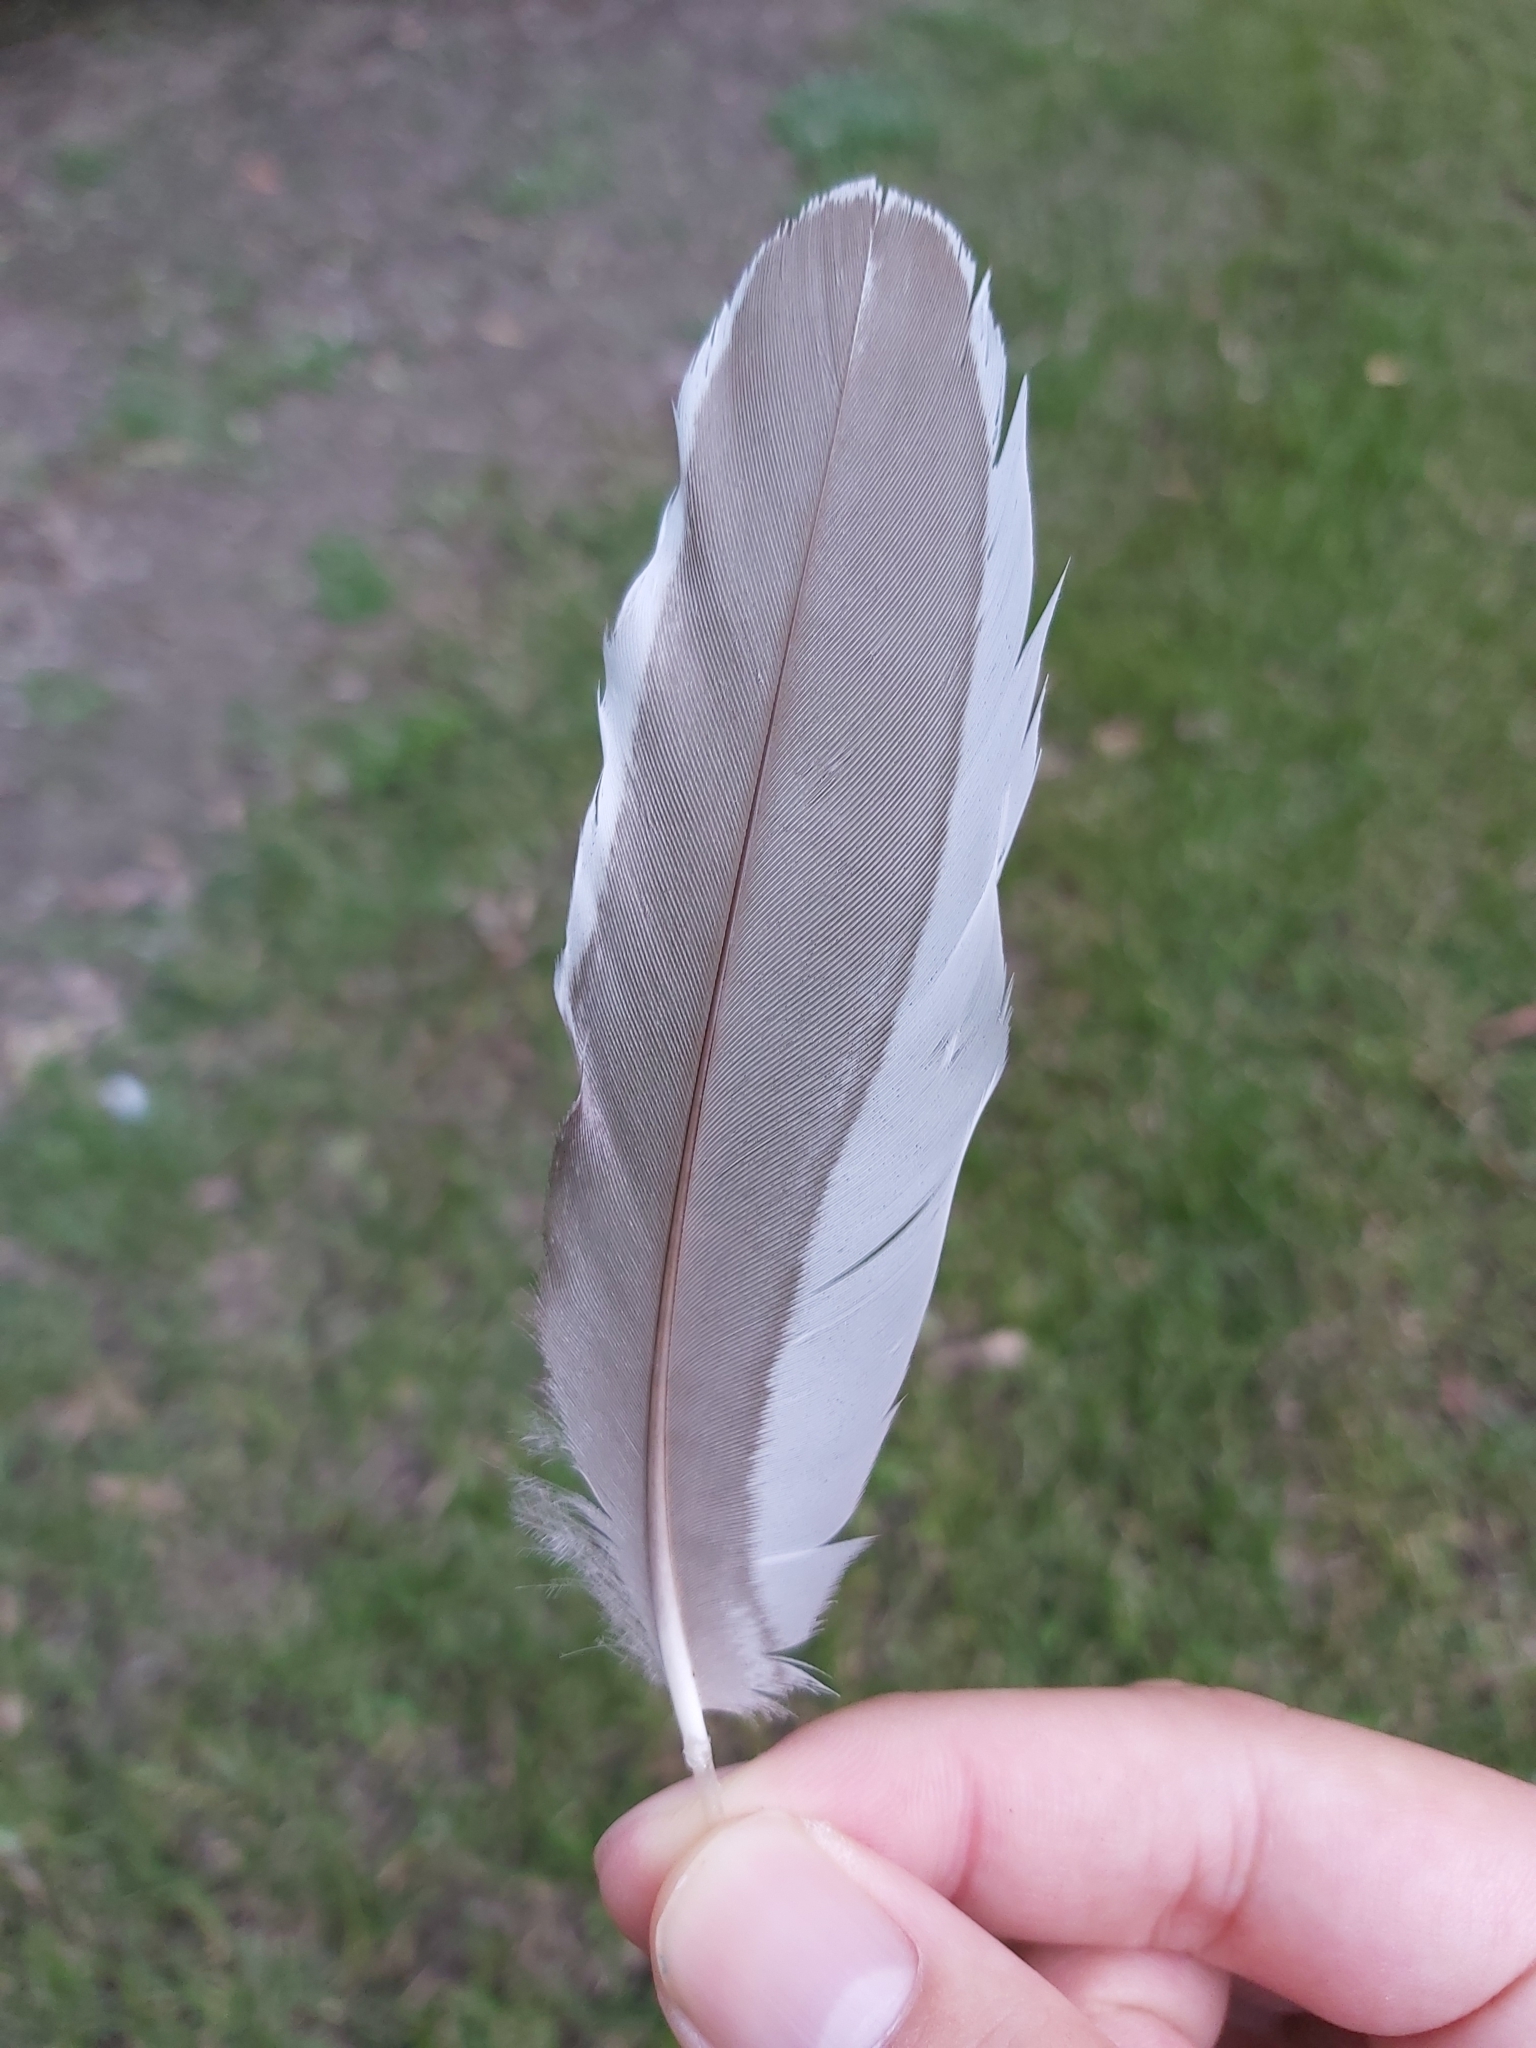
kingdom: Animalia
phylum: Chordata
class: Aves
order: Anseriformes
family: Anatidae
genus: Chenonetta
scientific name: Chenonetta jubata
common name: Maned duck
